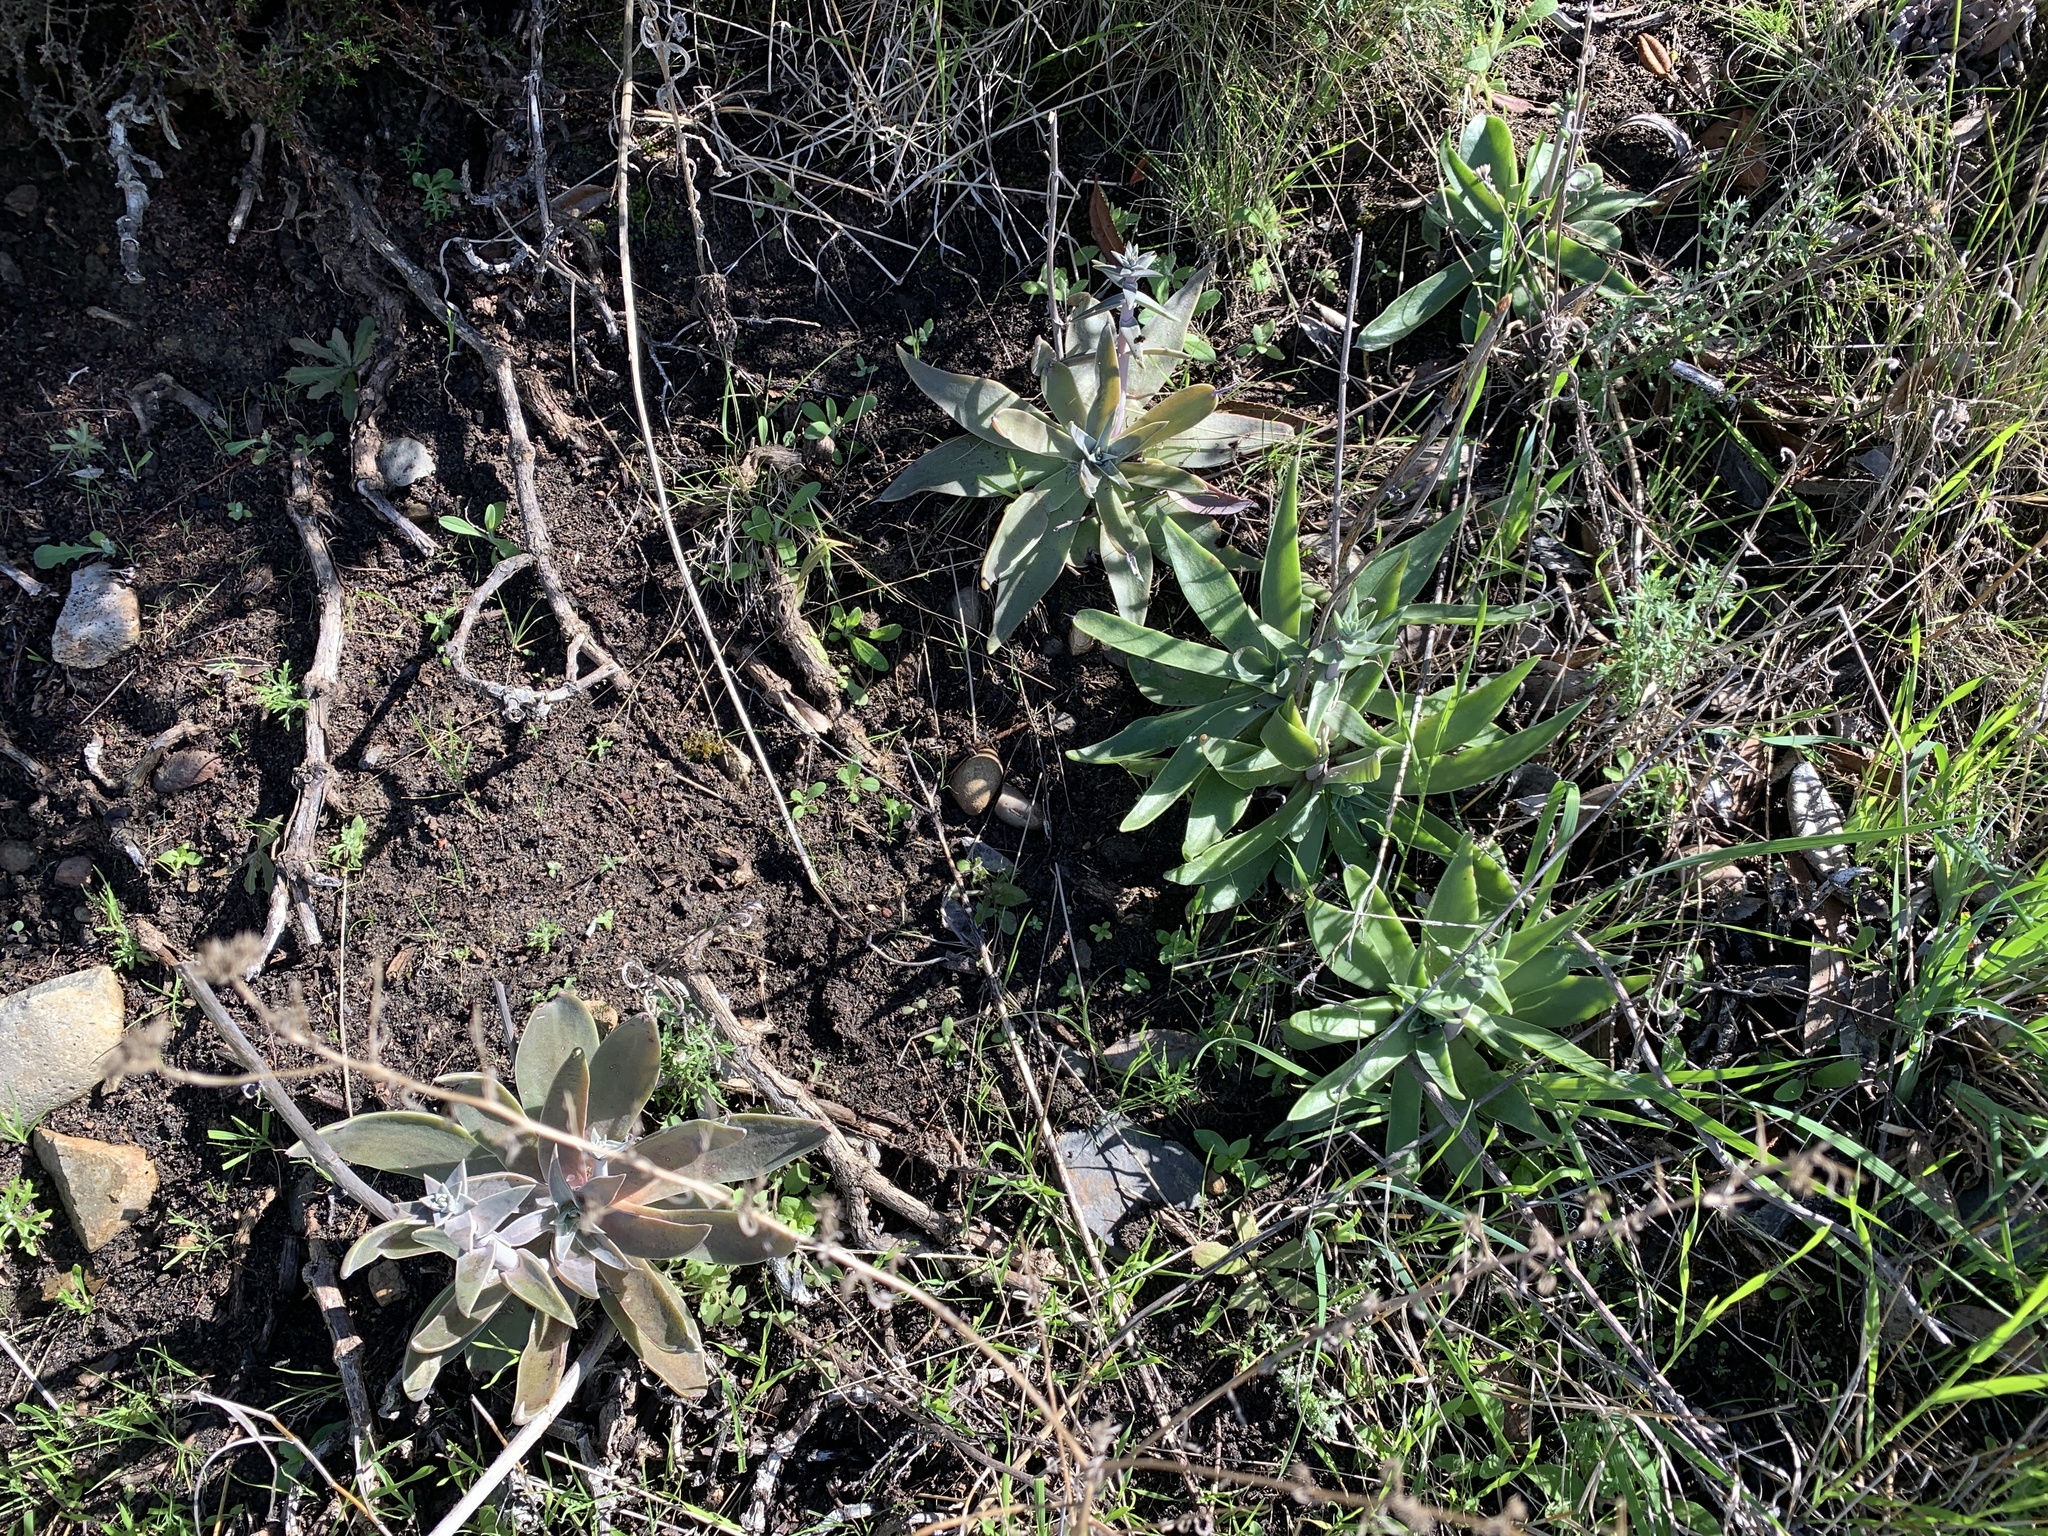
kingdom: Plantae
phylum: Tracheophyta
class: Magnoliopsida
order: Saxifragales
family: Crassulaceae
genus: Dudleya
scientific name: Dudleya lanceolata
